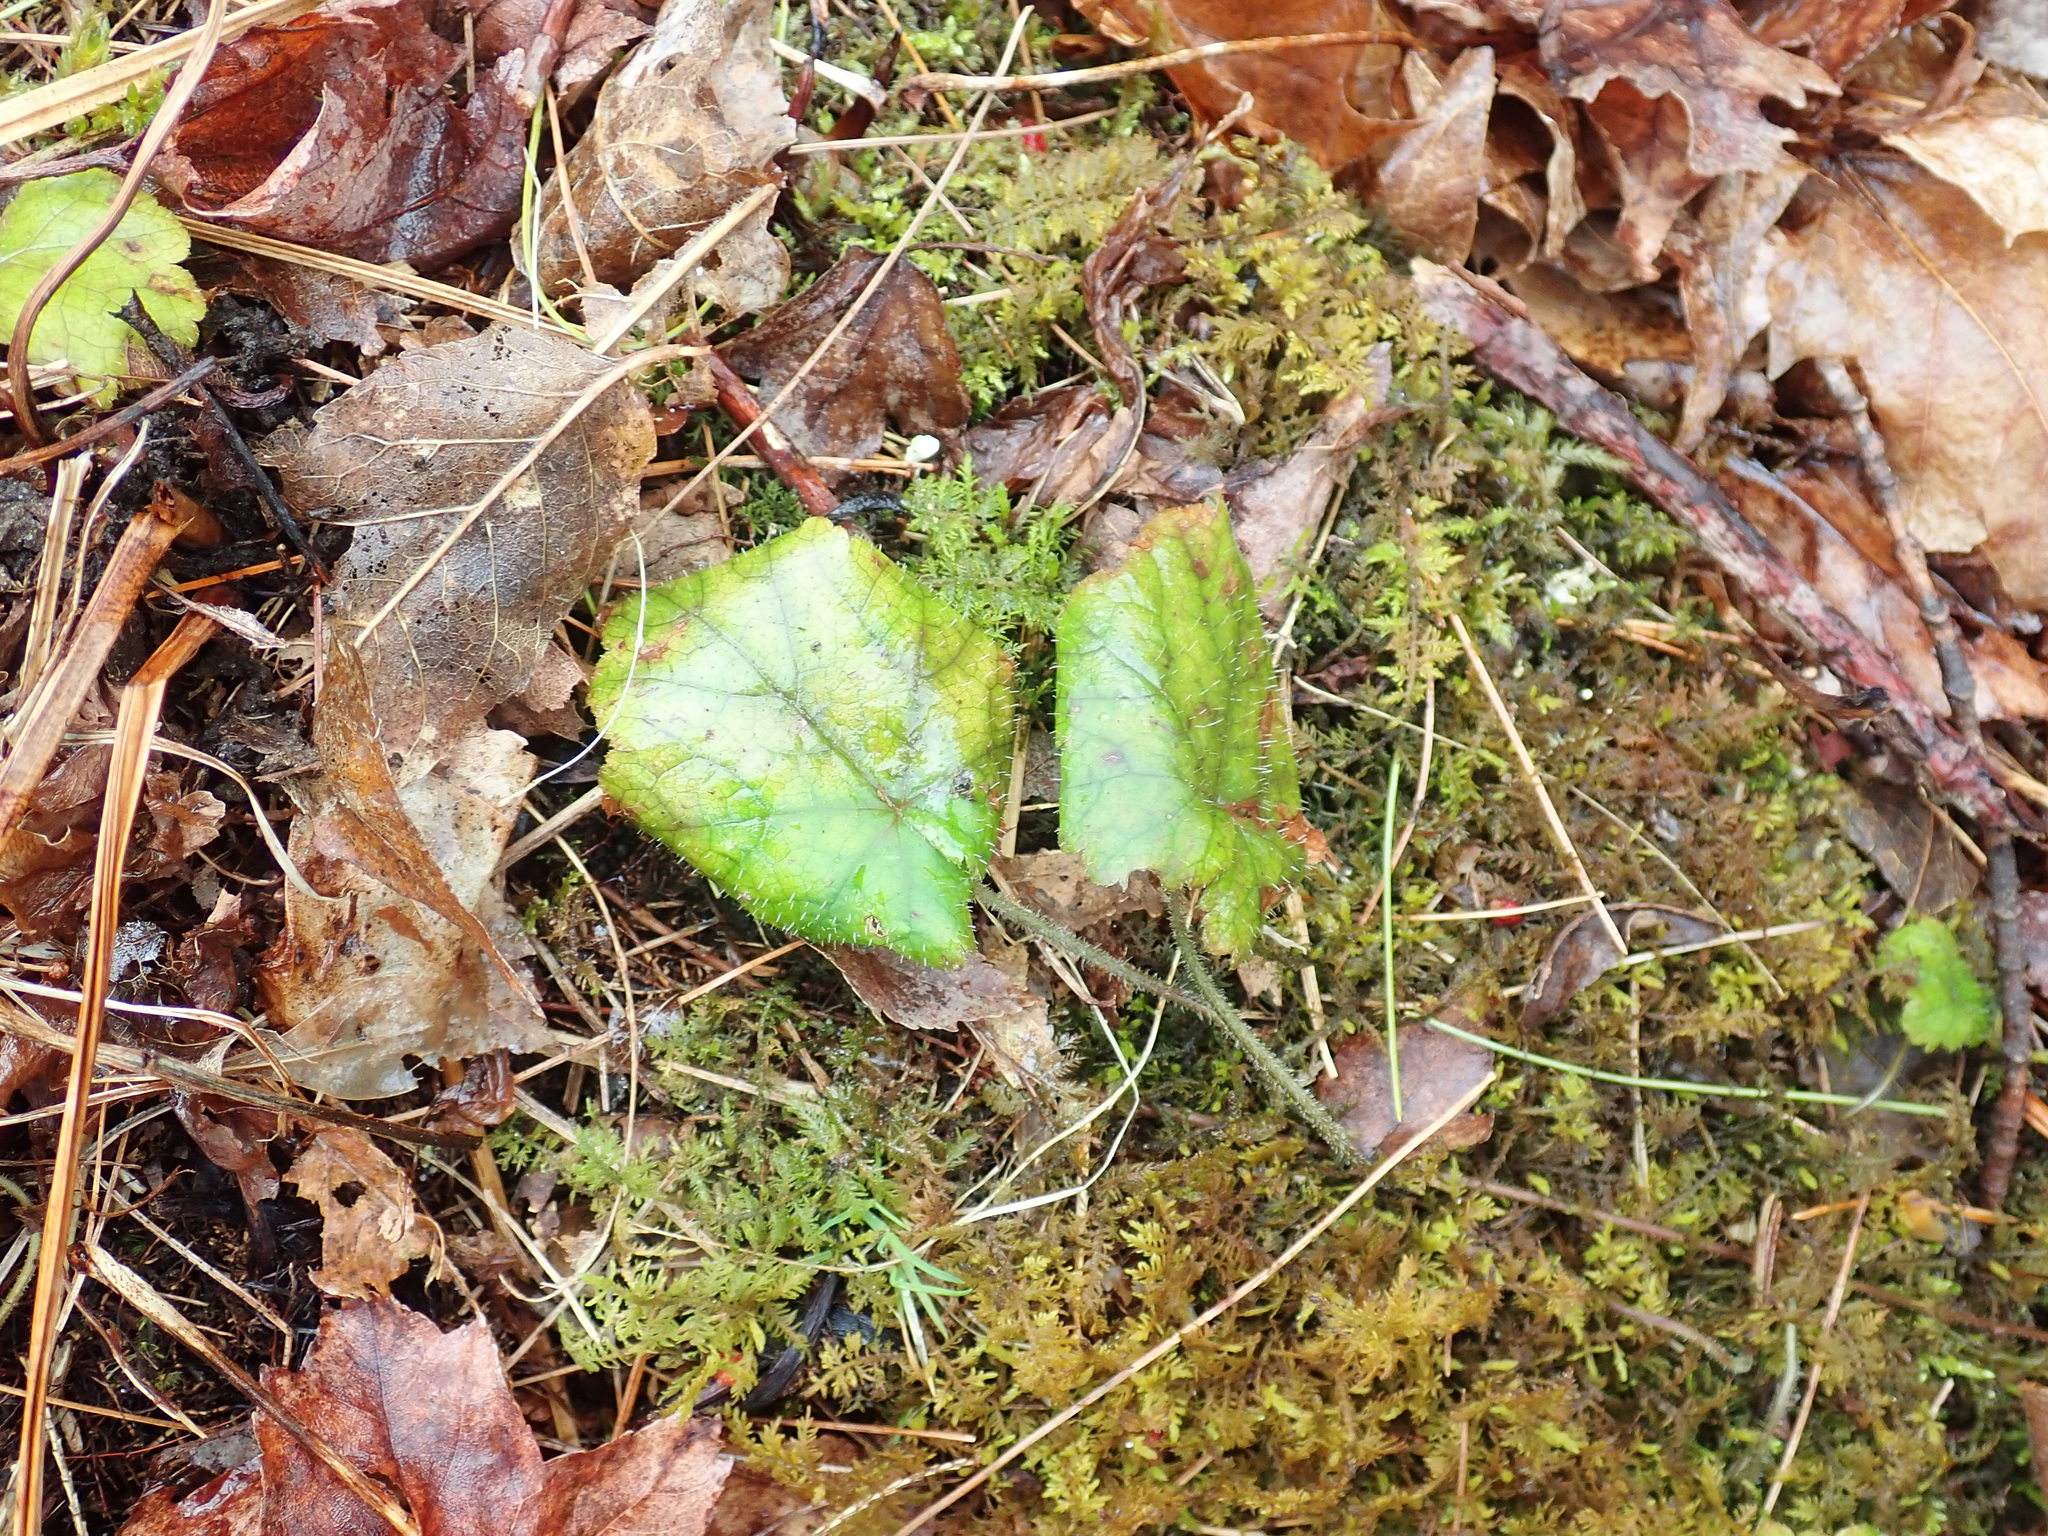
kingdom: Plantae
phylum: Tracheophyta
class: Magnoliopsida
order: Saxifragales
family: Saxifragaceae
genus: Tiarella
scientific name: Tiarella stolonifera
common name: Stoloniferous foamflower
